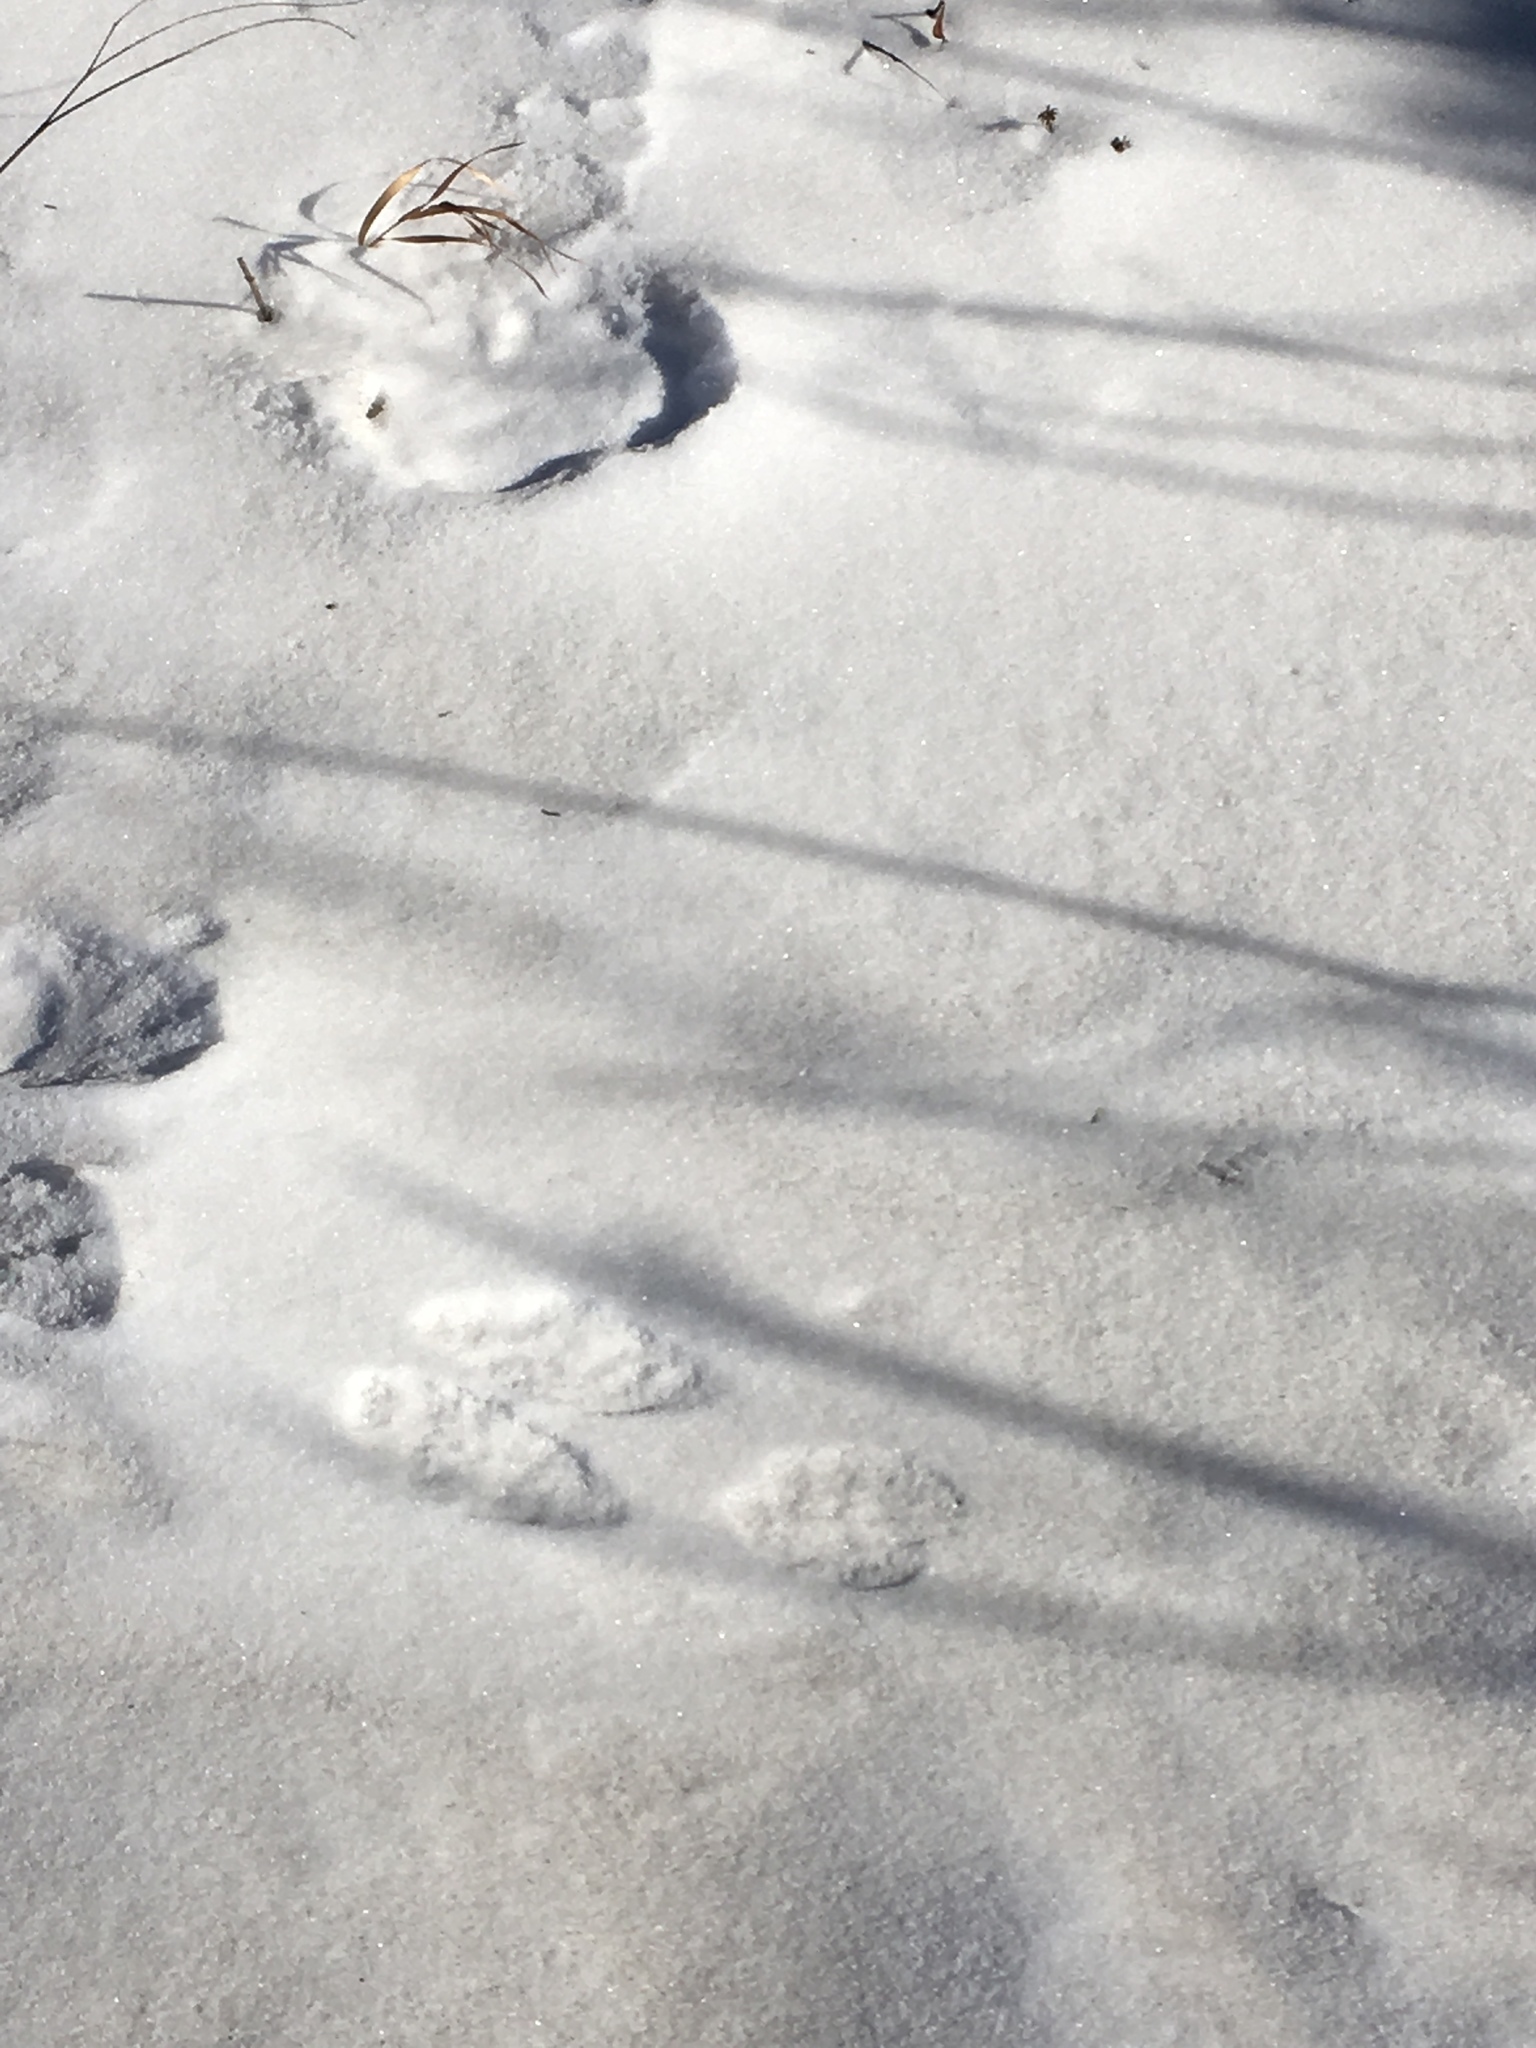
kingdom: Animalia
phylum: Chordata
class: Mammalia
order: Lagomorpha
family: Leporidae
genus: Lepus
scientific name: Lepus americanus
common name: Snowshoe hare
